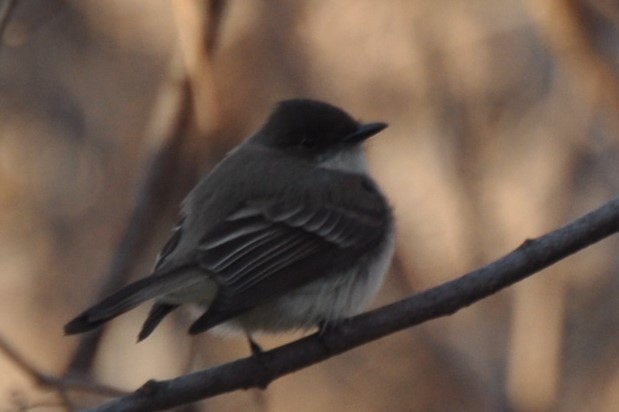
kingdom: Animalia
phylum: Chordata
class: Aves
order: Passeriformes
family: Tyrannidae
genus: Sayornis
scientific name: Sayornis phoebe
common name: Eastern phoebe
